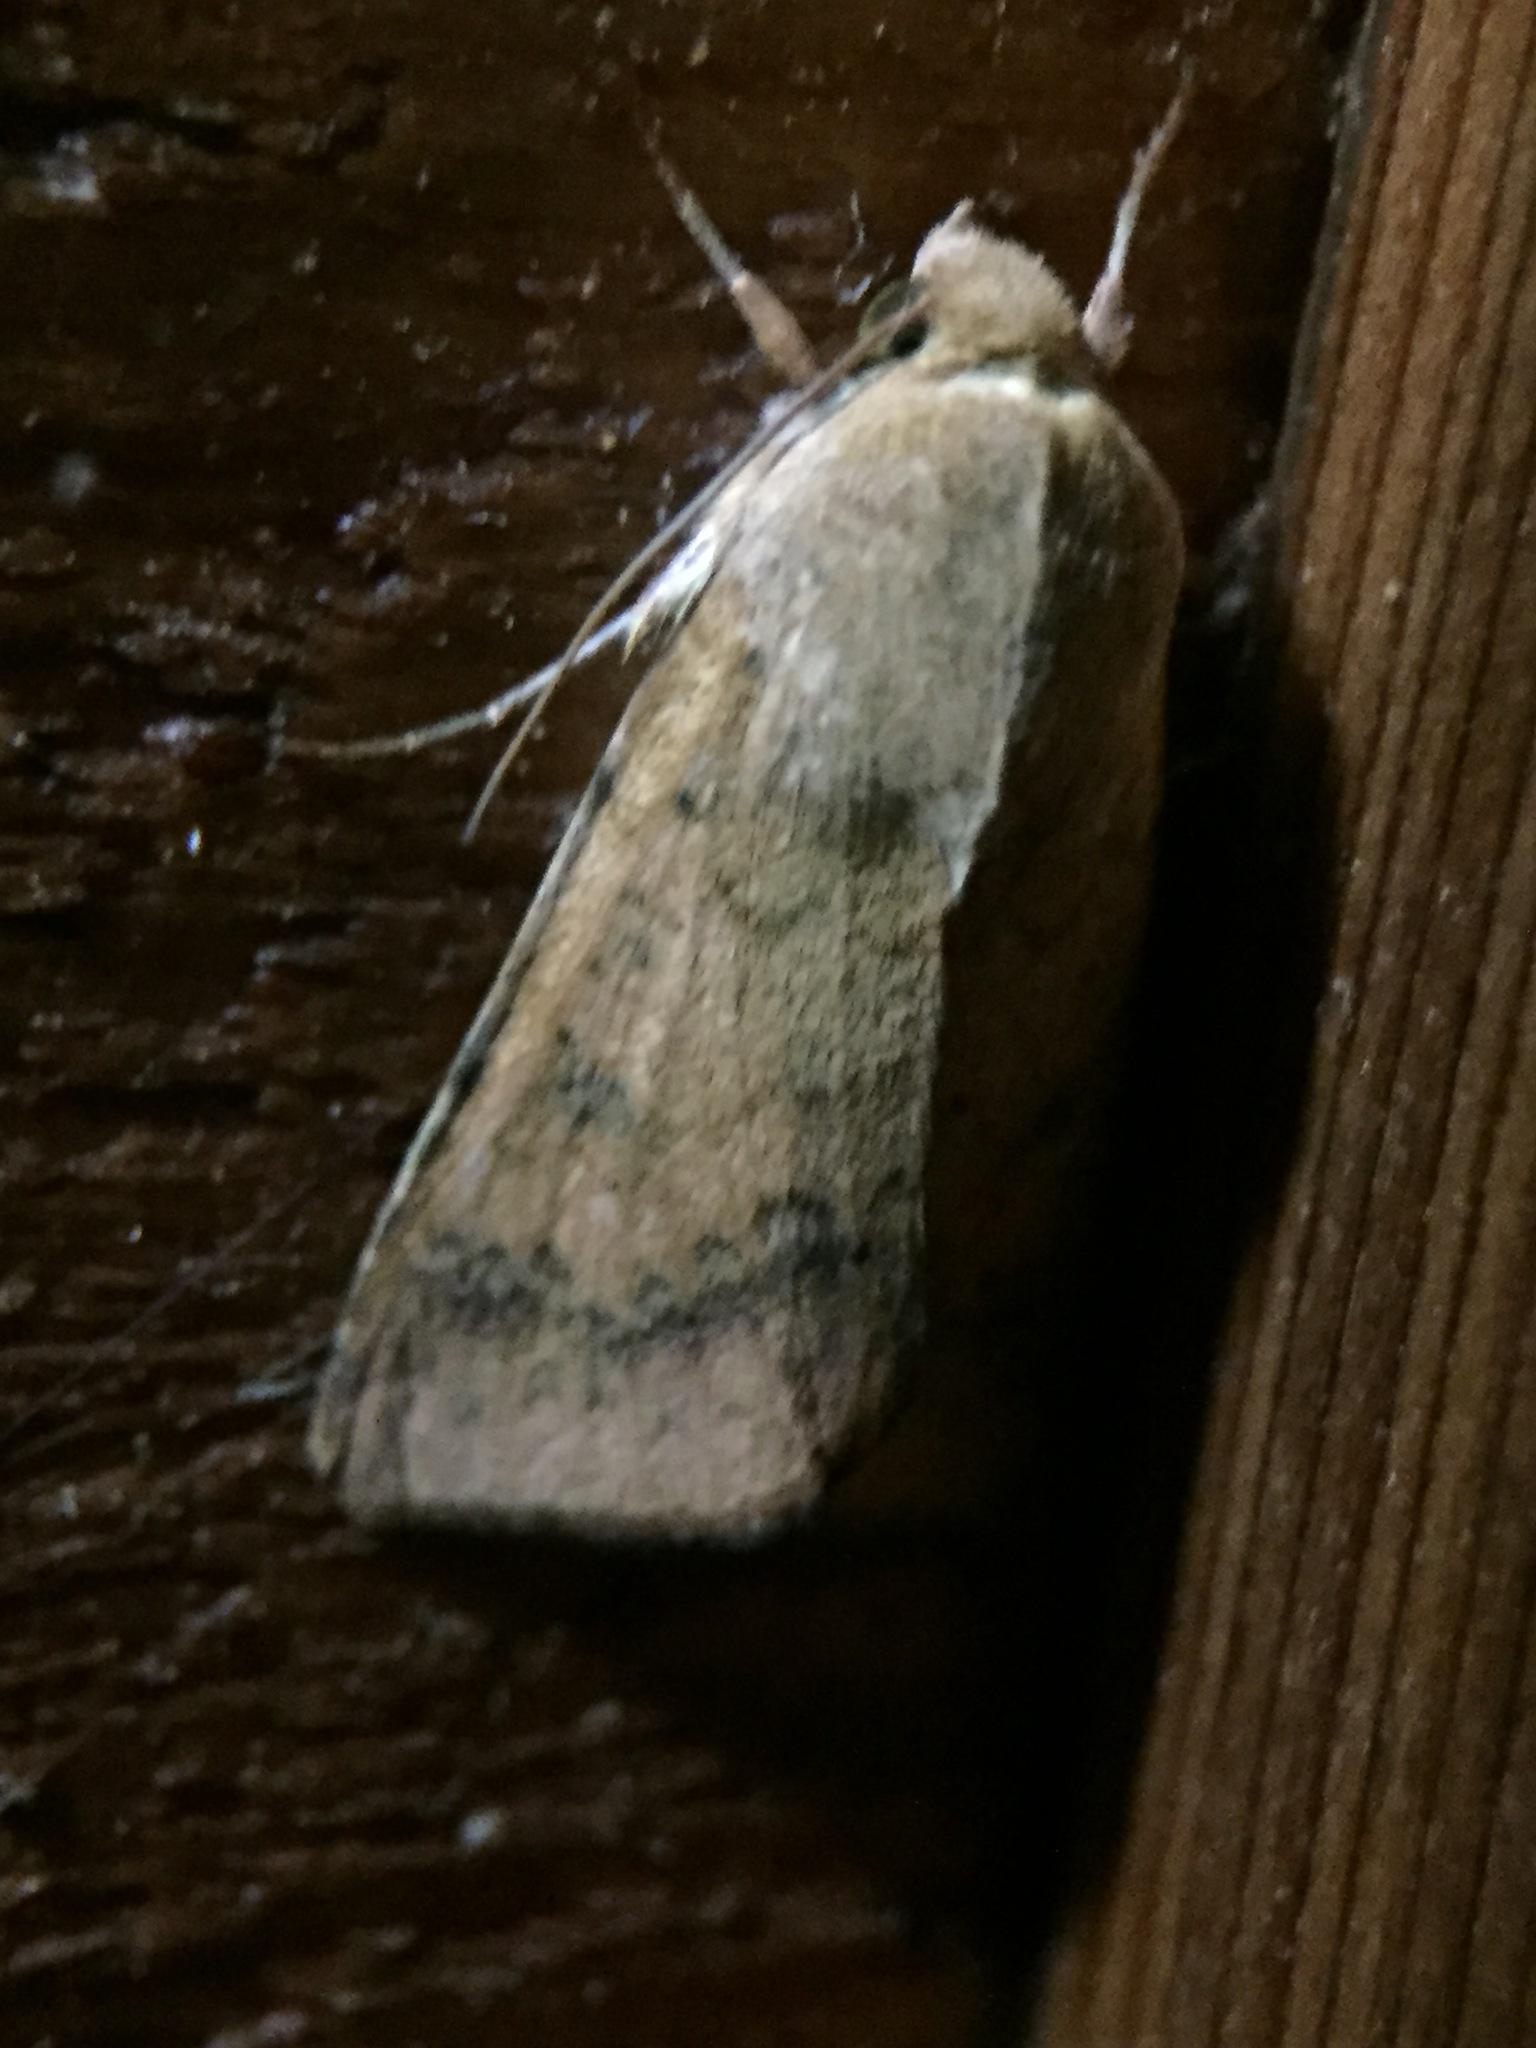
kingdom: Animalia
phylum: Arthropoda
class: Insecta
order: Lepidoptera
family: Noctuidae
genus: Helicoverpa
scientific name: Helicoverpa armigera
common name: Cotton bollworm
